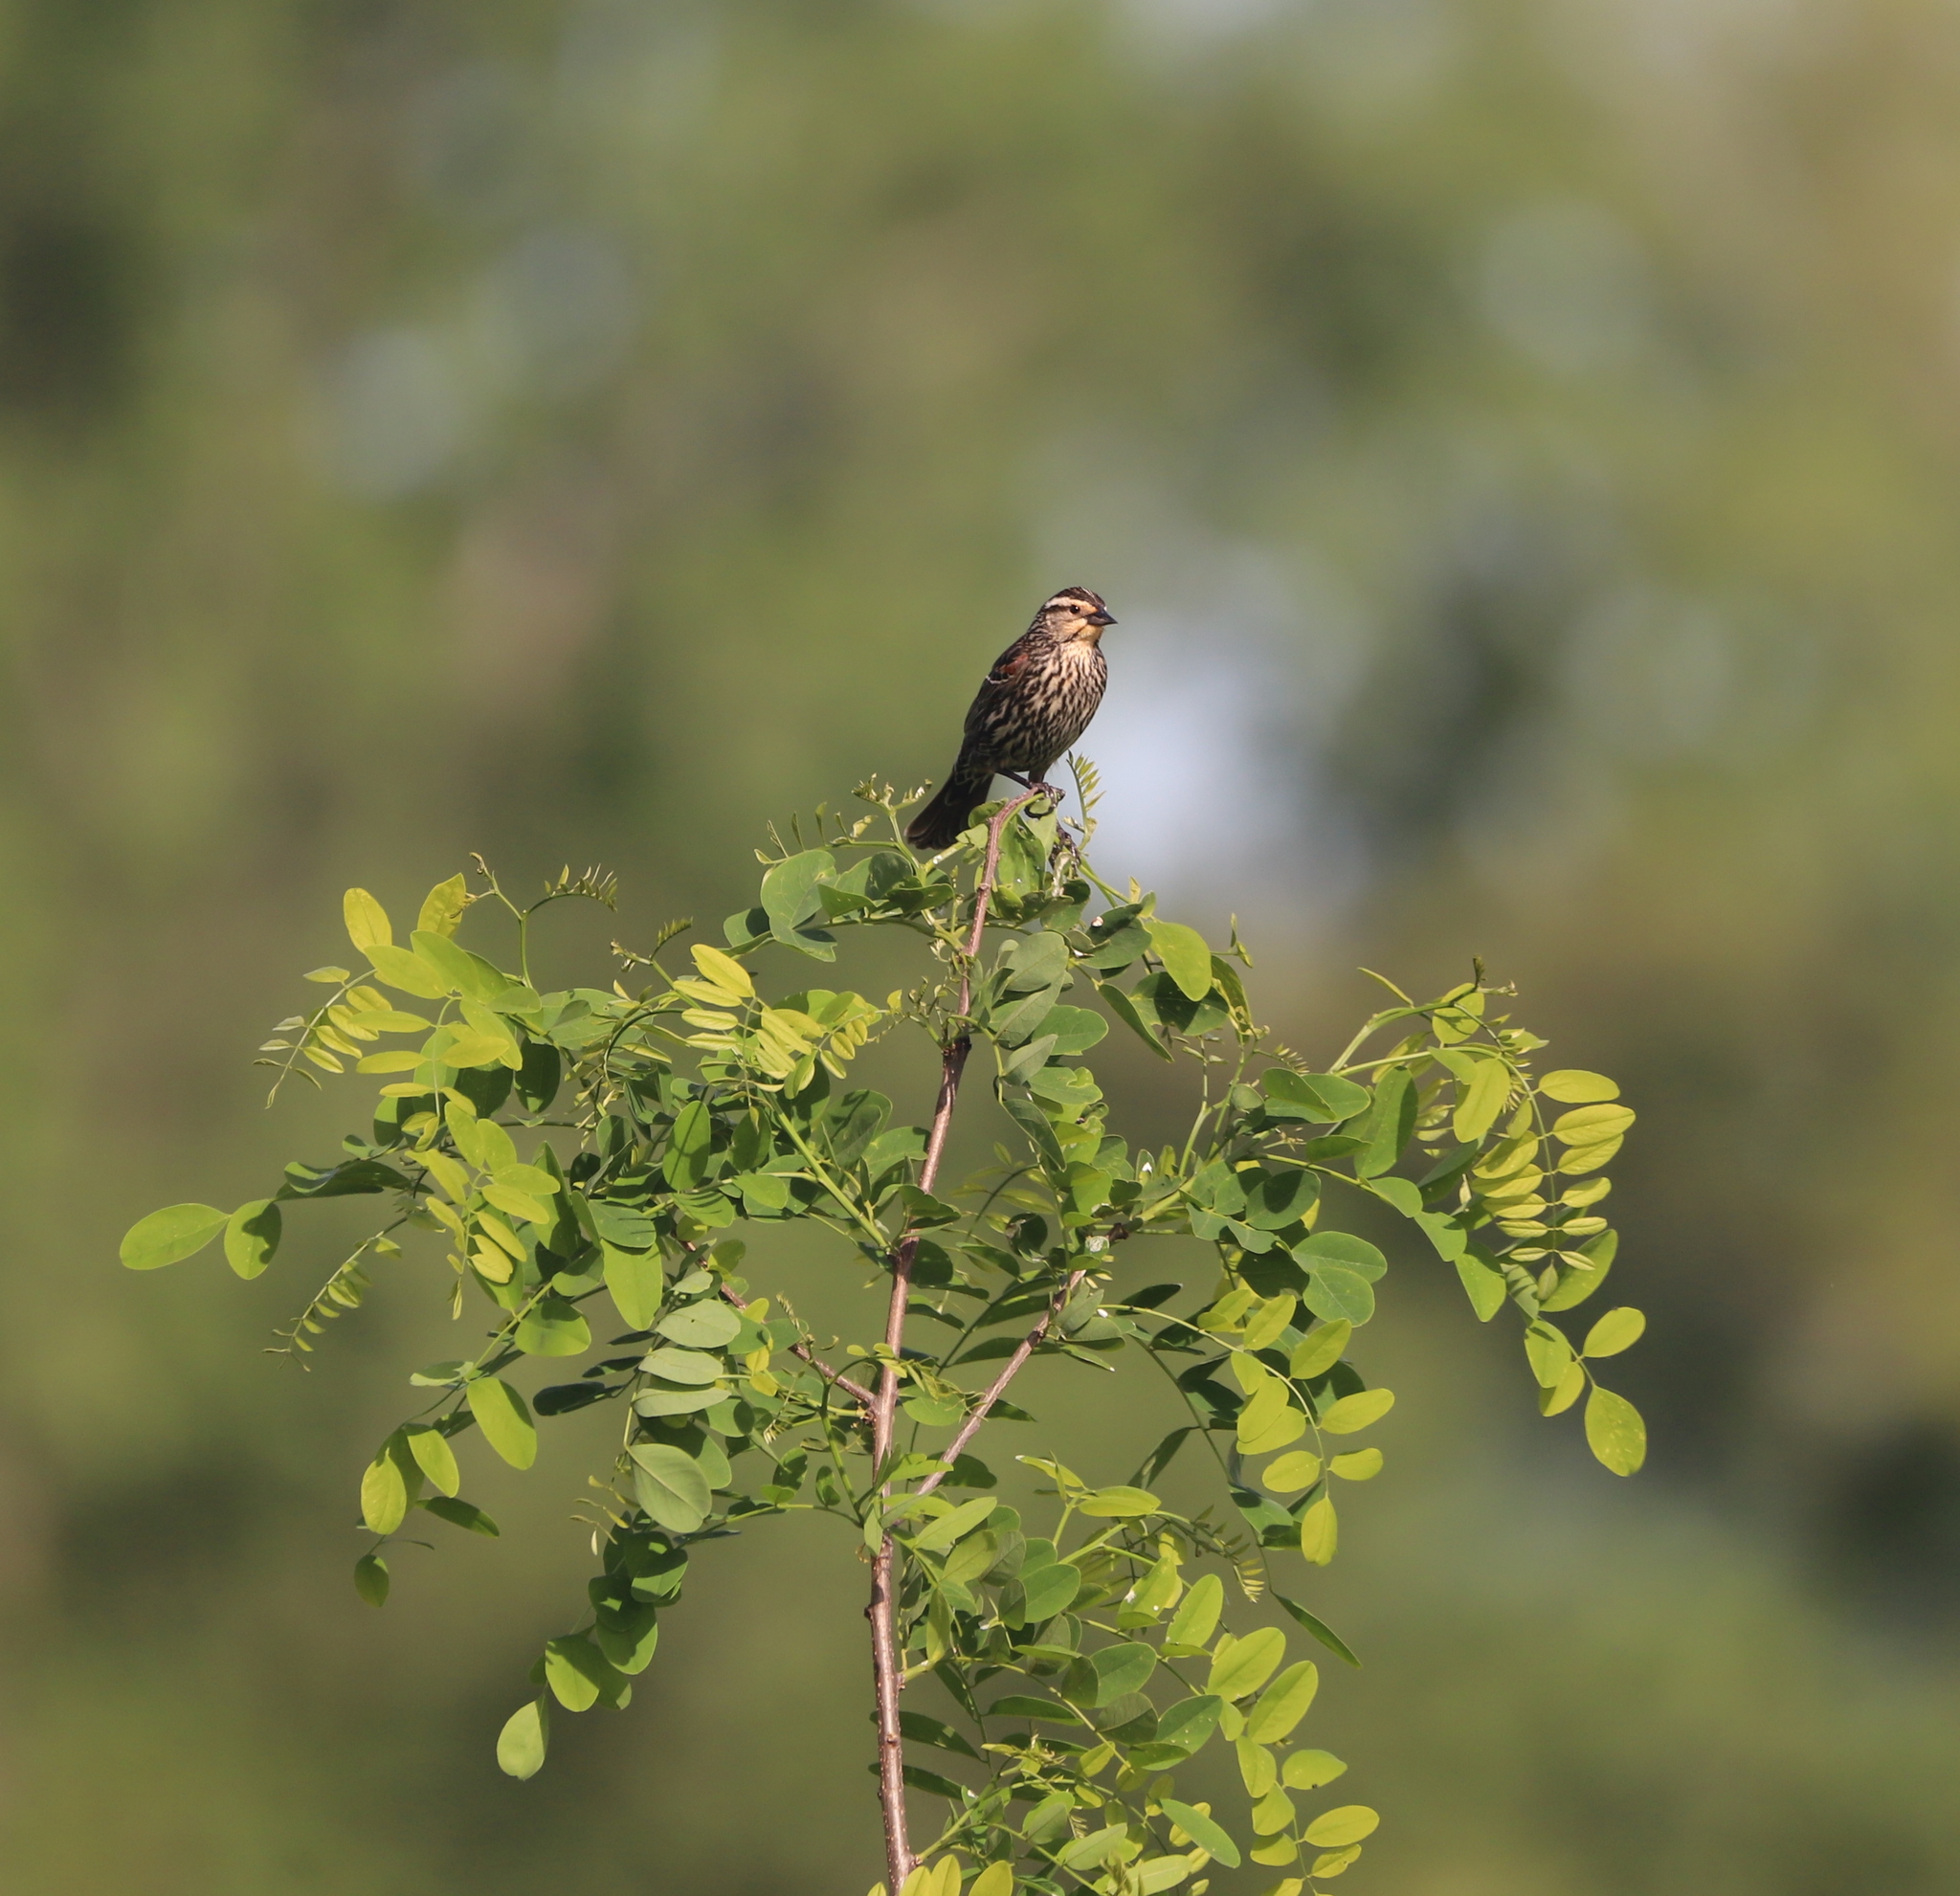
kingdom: Animalia
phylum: Chordata
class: Aves
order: Passeriformes
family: Icteridae
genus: Agelaius
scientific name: Agelaius phoeniceus
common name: Red-winged blackbird
